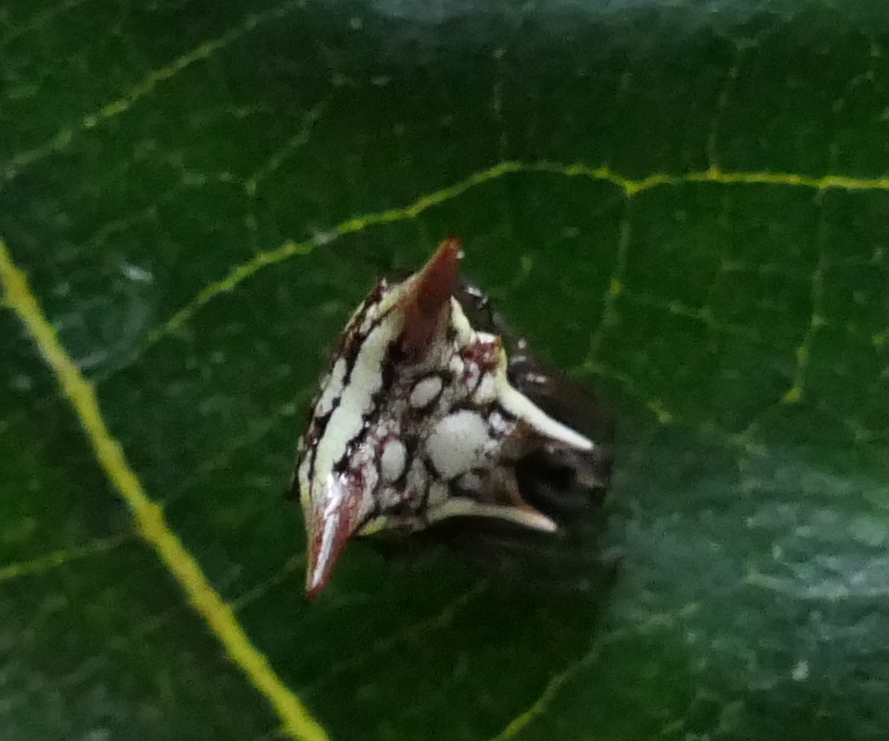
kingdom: Animalia
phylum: Arthropoda
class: Arachnida
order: Araneae
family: Araneidae
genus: Micrathena
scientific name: Micrathena evansi
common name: Orb weavers
